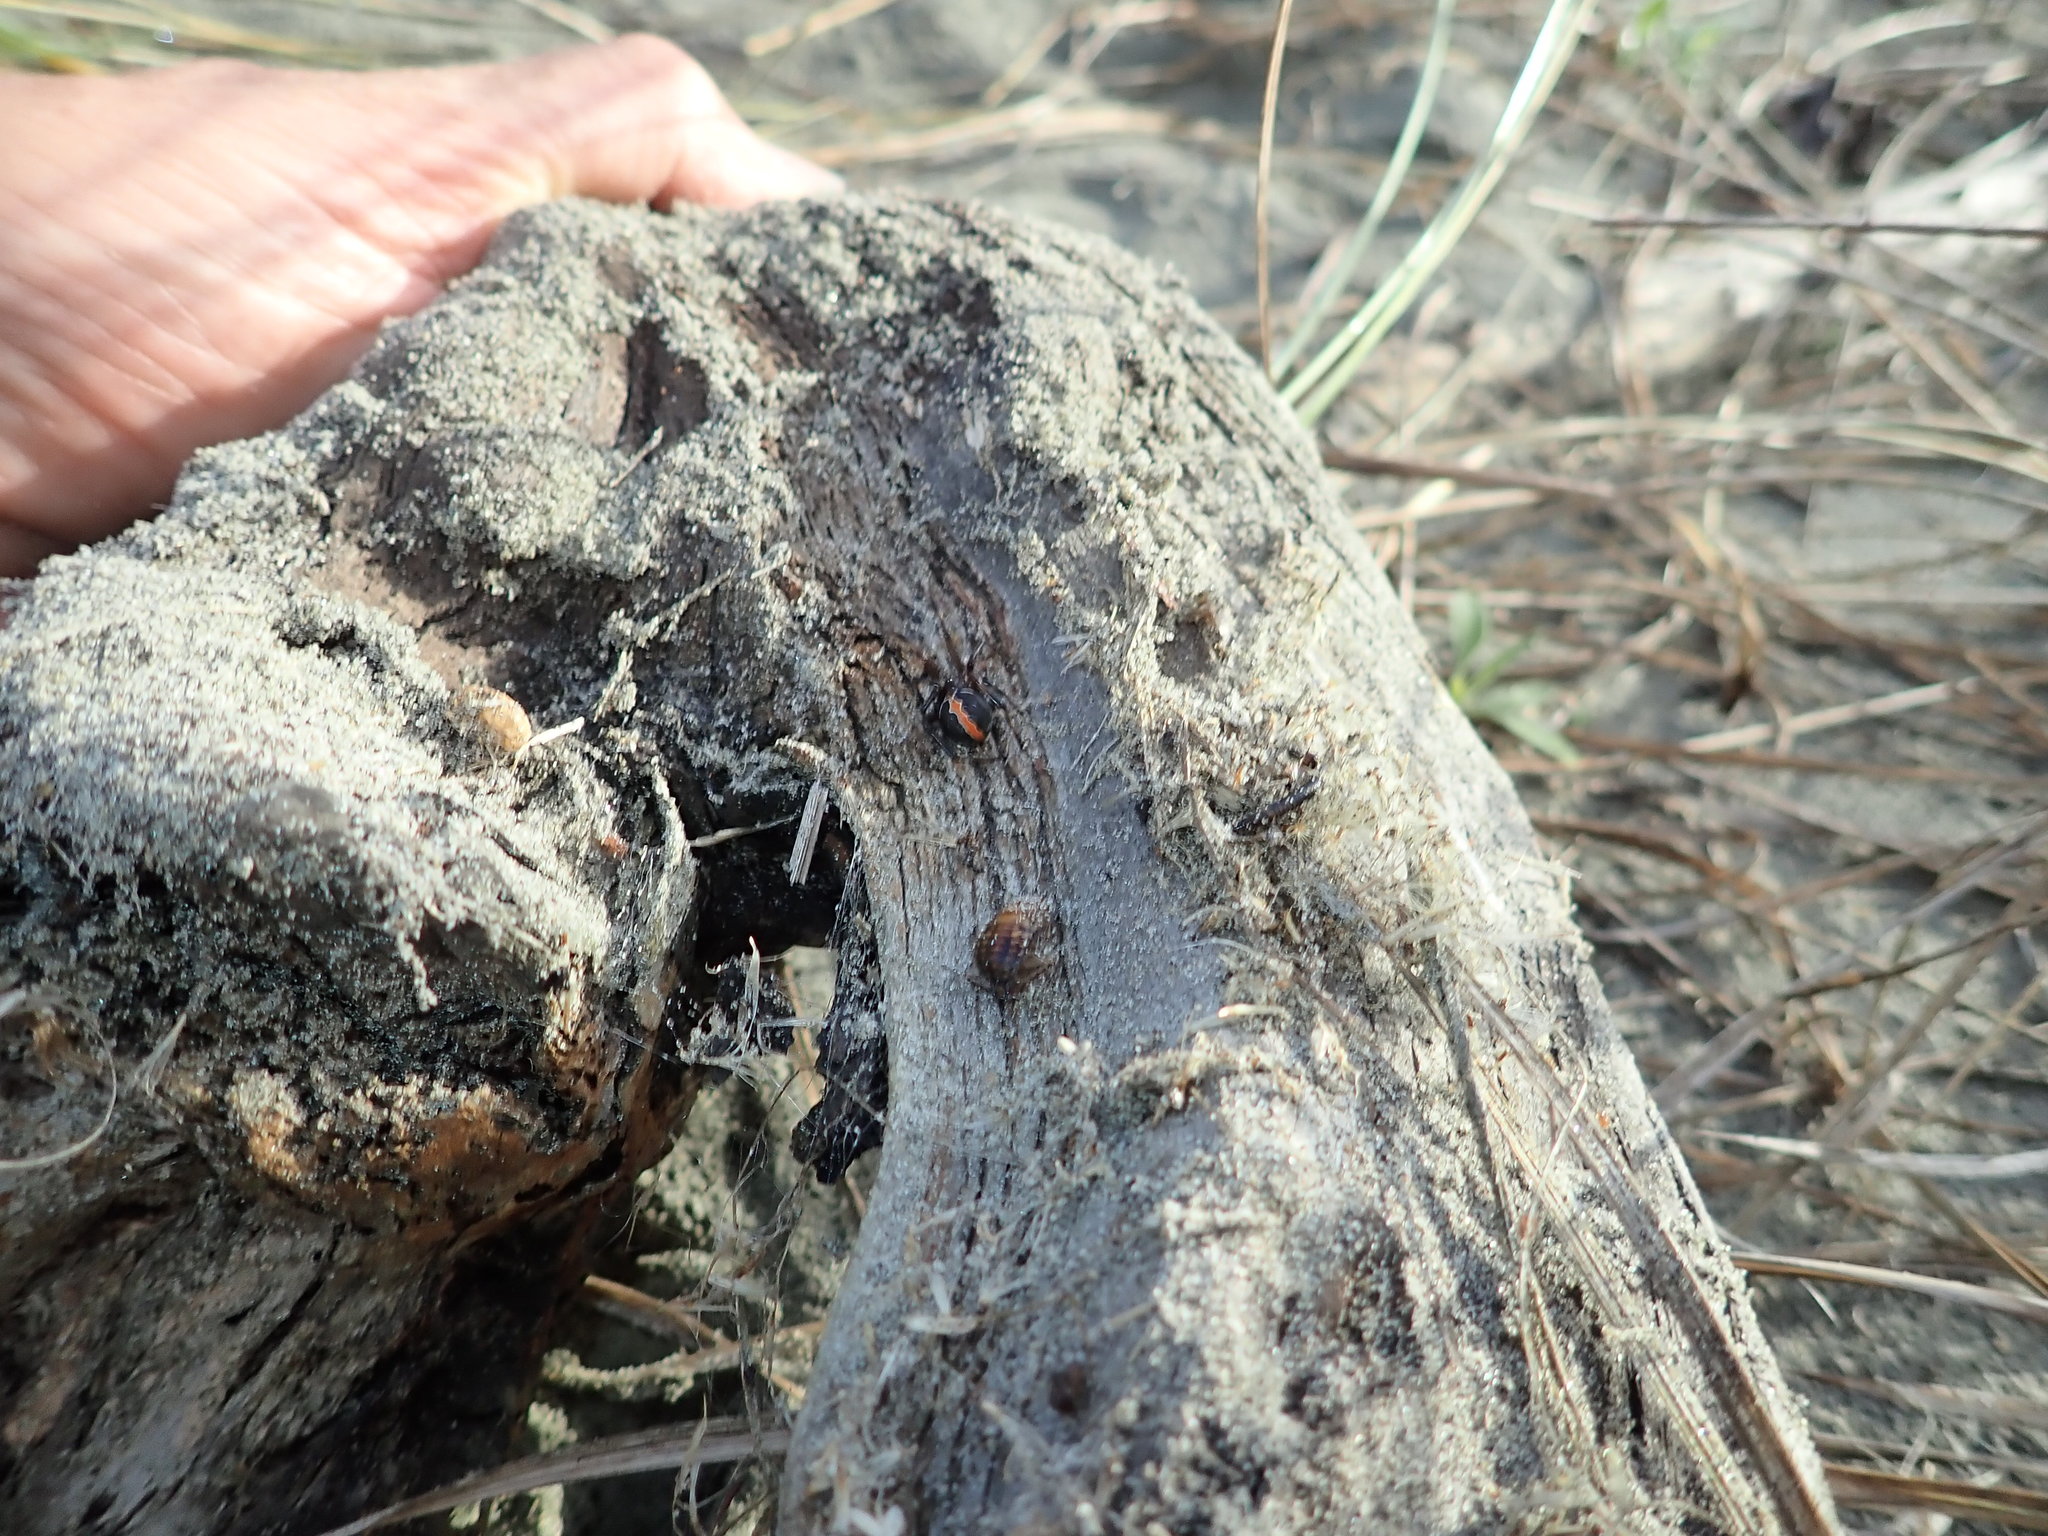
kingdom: Animalia
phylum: Arthropoda
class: Arachnida
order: Araneae
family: Theridiidae
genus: Latrodectus
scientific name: Latrodectus katipo
